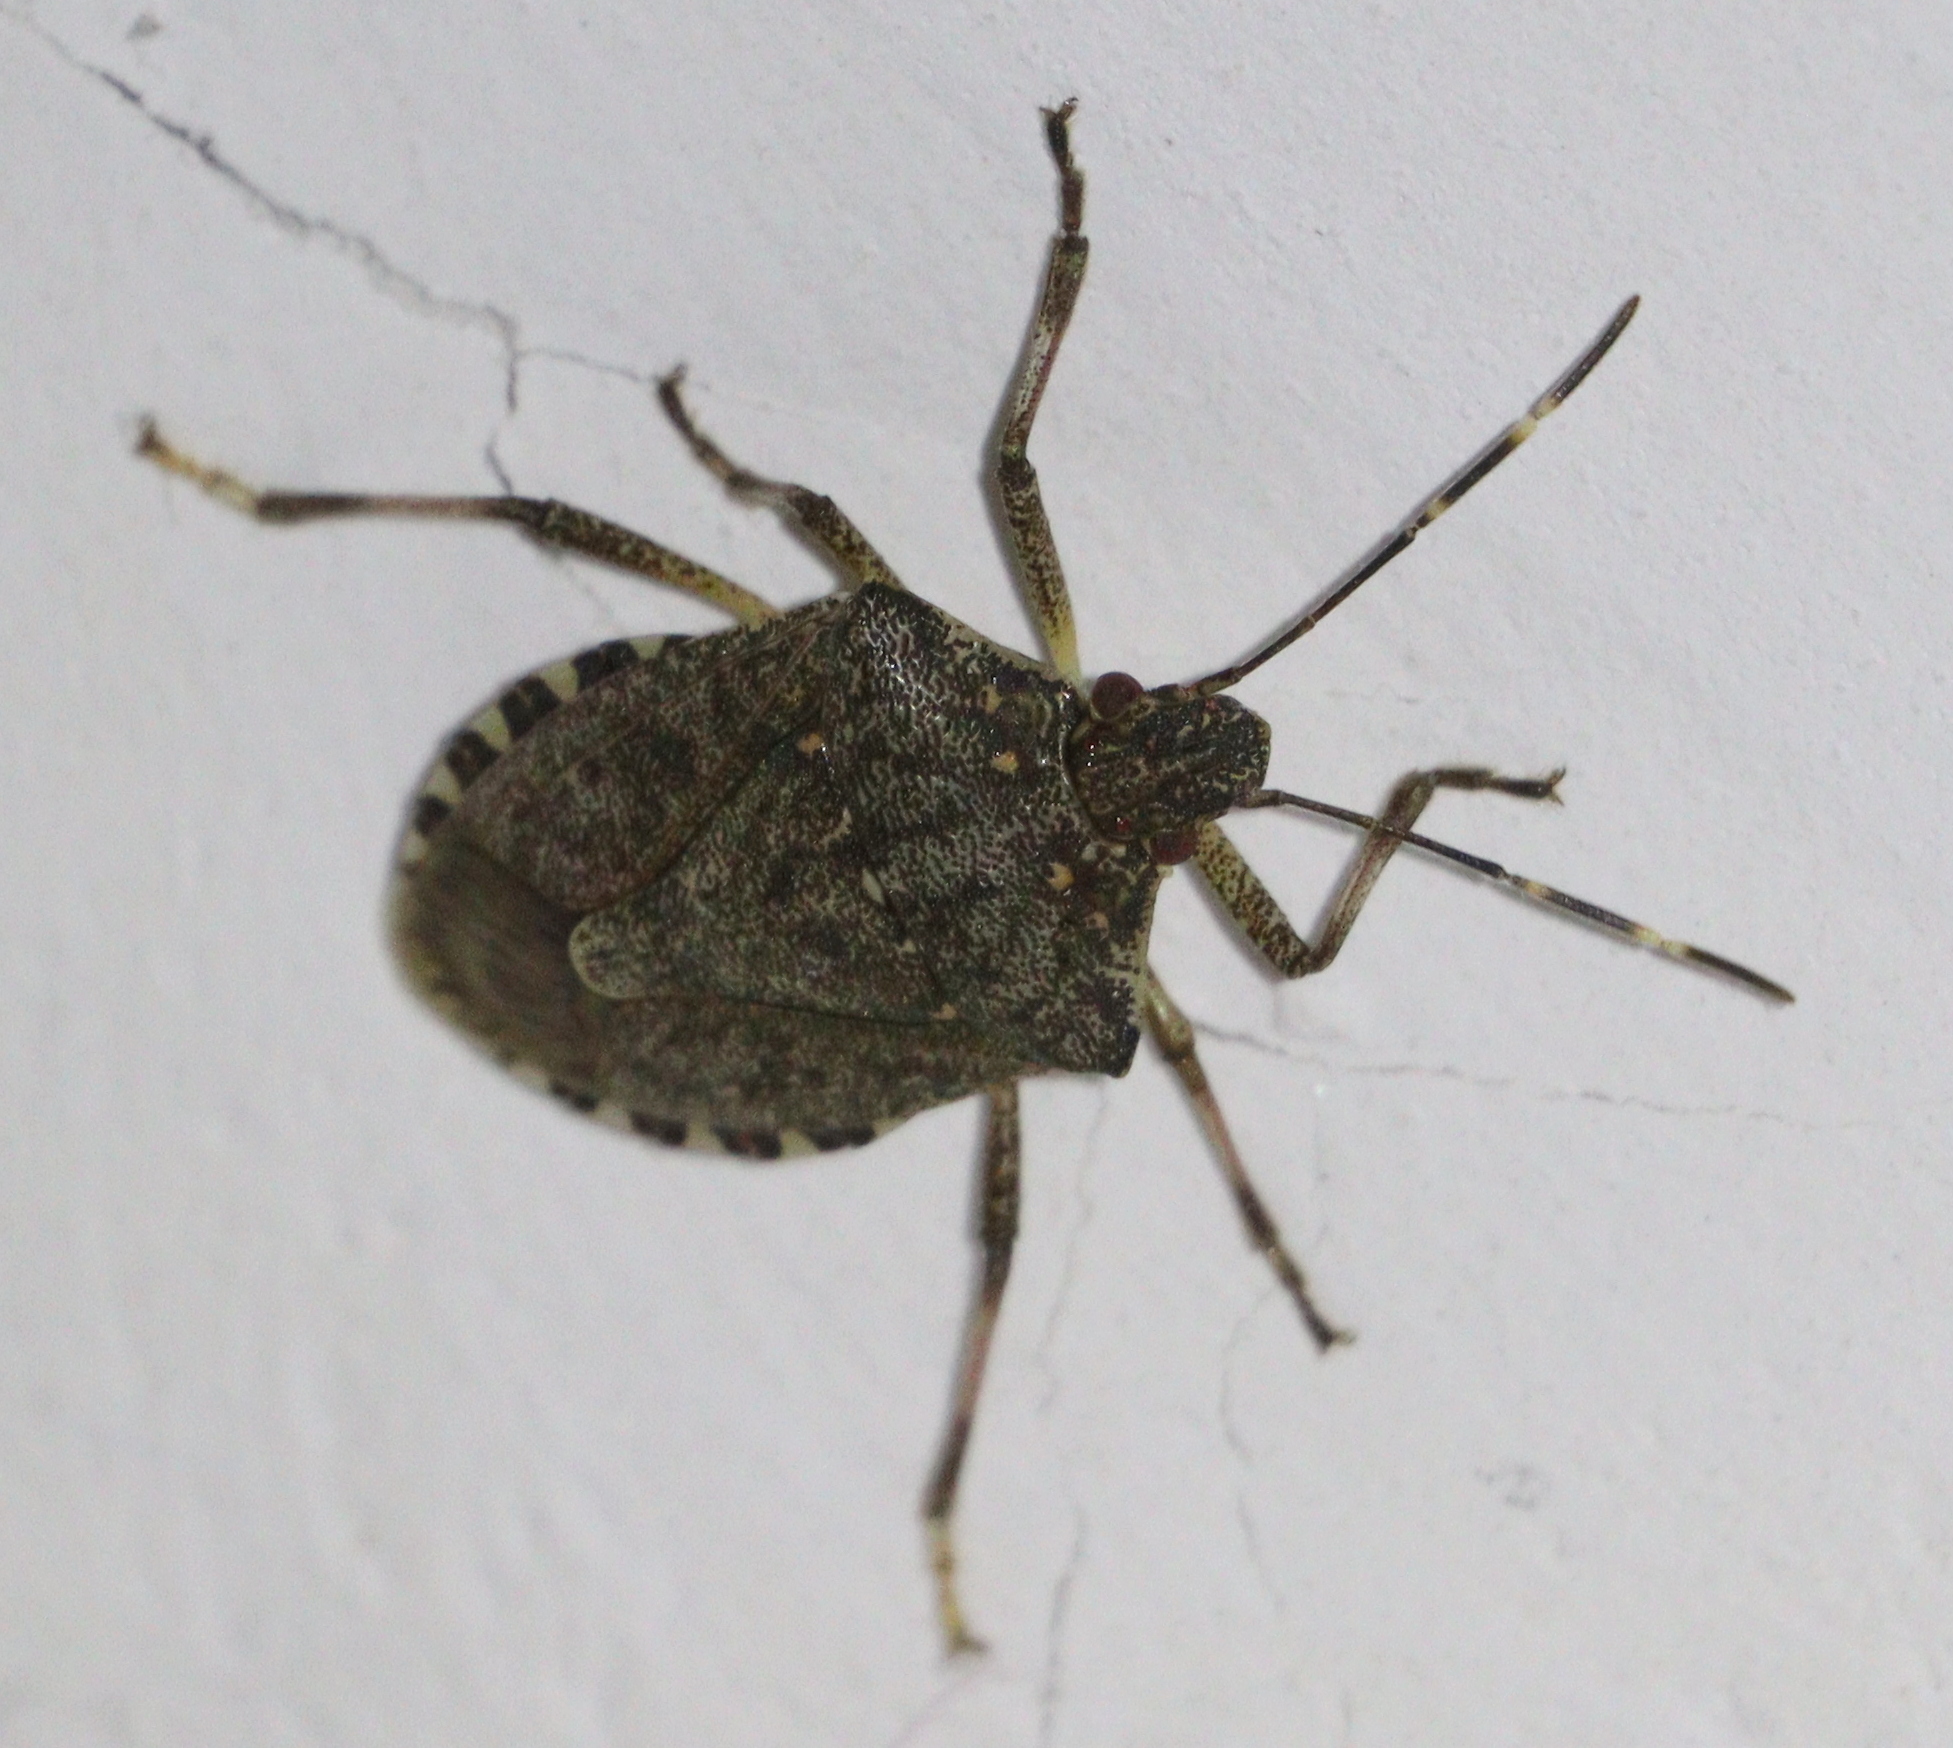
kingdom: Animalia
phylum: Arthropoda
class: Insecta
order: Hemiptera
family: Pentatomidae
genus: Halyomorpha
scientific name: Halyomorpha halys
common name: Brown marmorated stink bug
